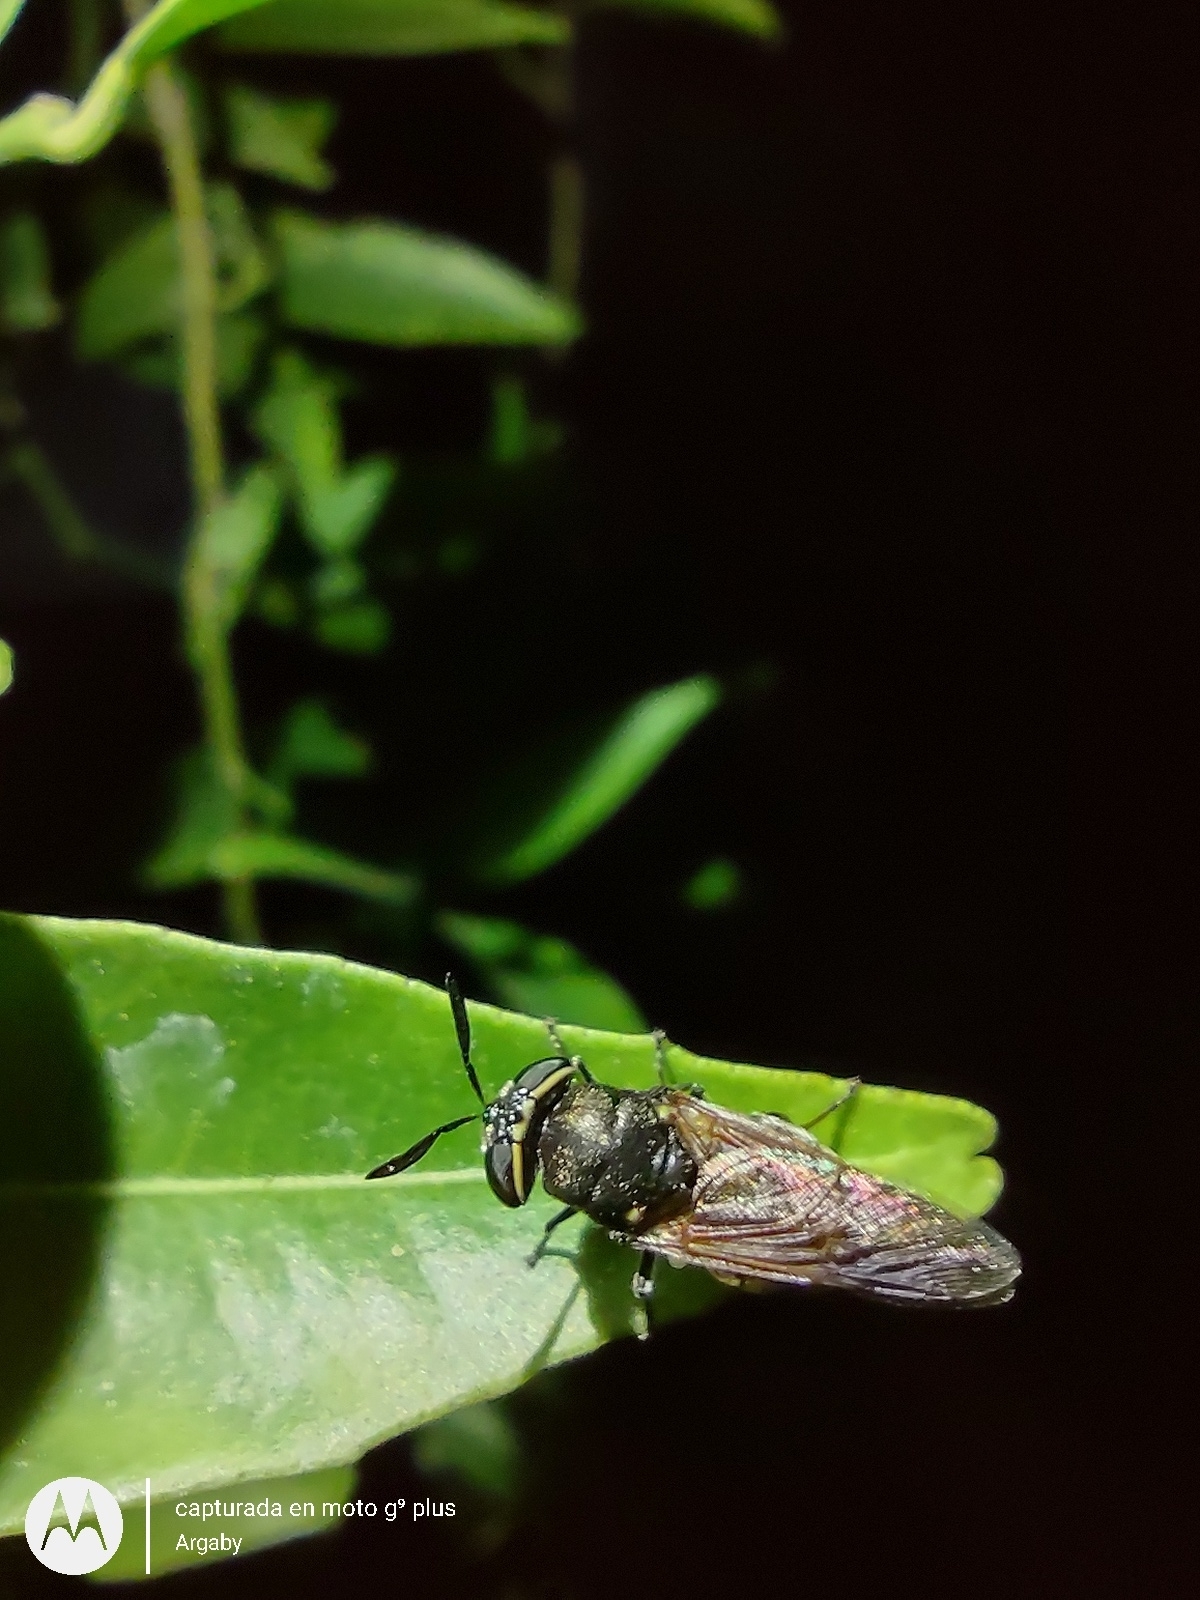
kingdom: Animalia
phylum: Arthropoda
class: Insecta
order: Diptera
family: Stratiomyidae
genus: Hoplitimyia
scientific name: Hoplitimyia
